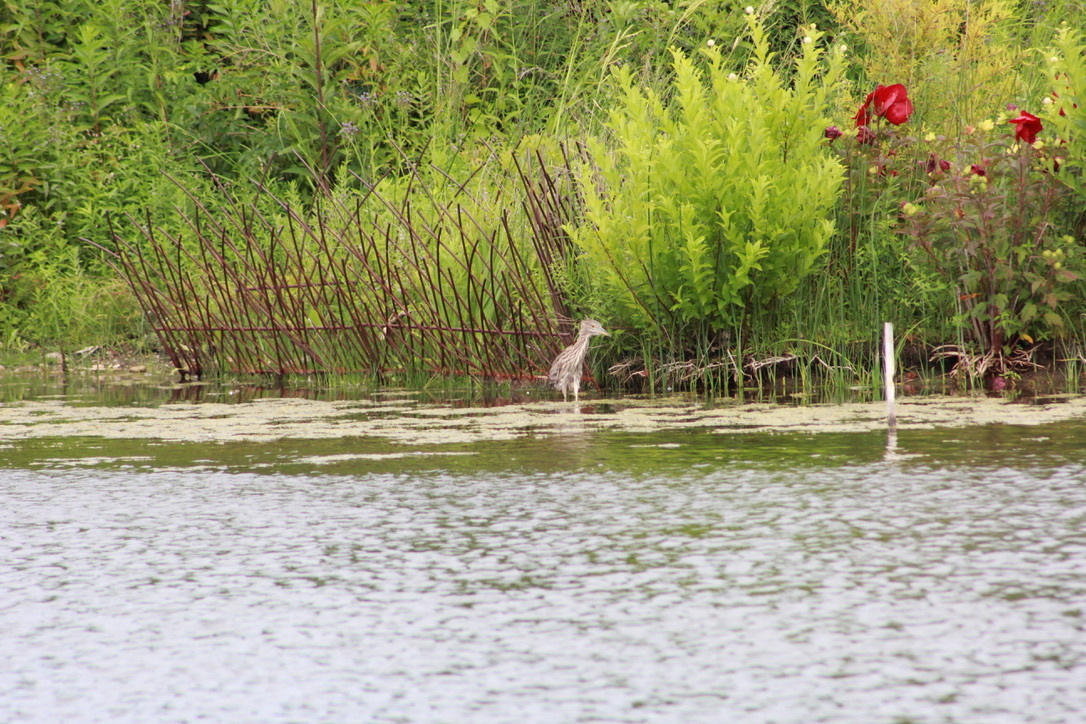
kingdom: Animalia
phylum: Chordata
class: Aves
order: Pelecaniformes
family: Ardeidae
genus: Nycticorax
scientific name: Nycticorax nycticorax
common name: Black-crowned night heron
